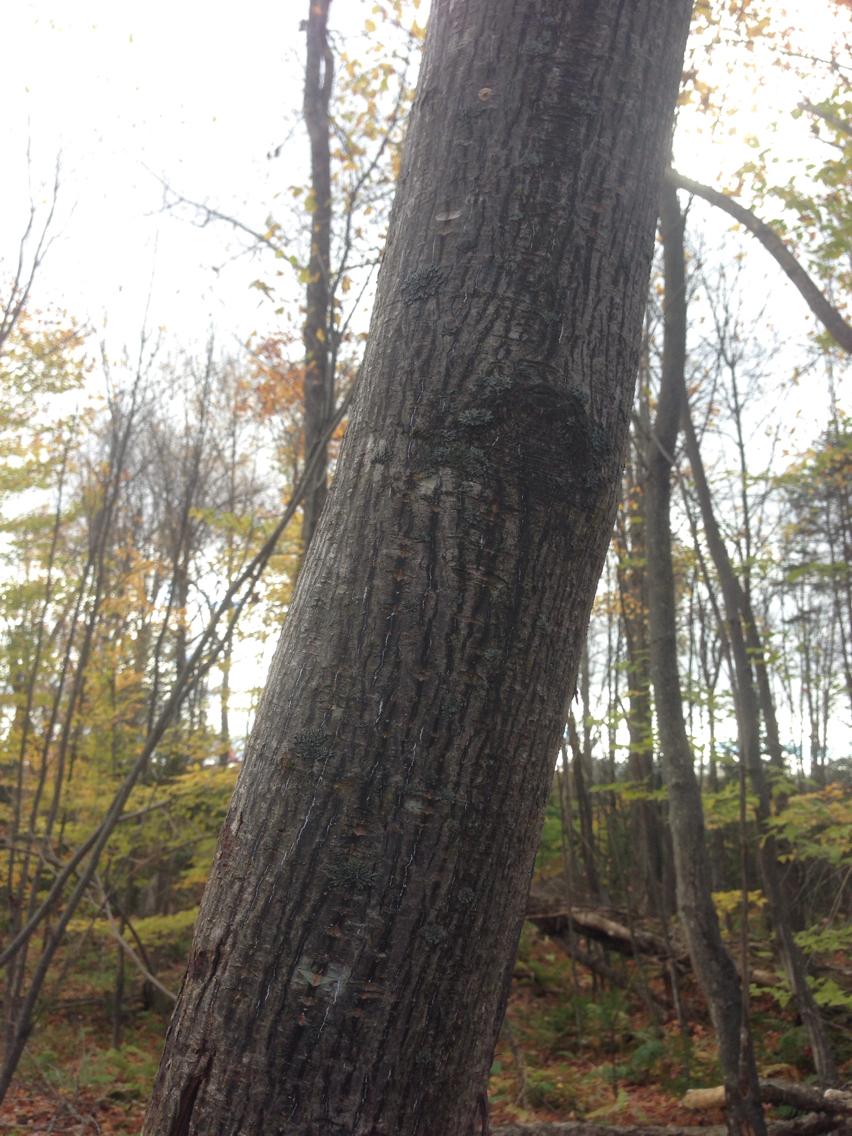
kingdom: Plantae
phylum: Tracheophyta
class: Magnoliopsida
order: Sapindales
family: Sapindaceae
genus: Acer
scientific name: Acer pensylvanicum
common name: Moosewood
